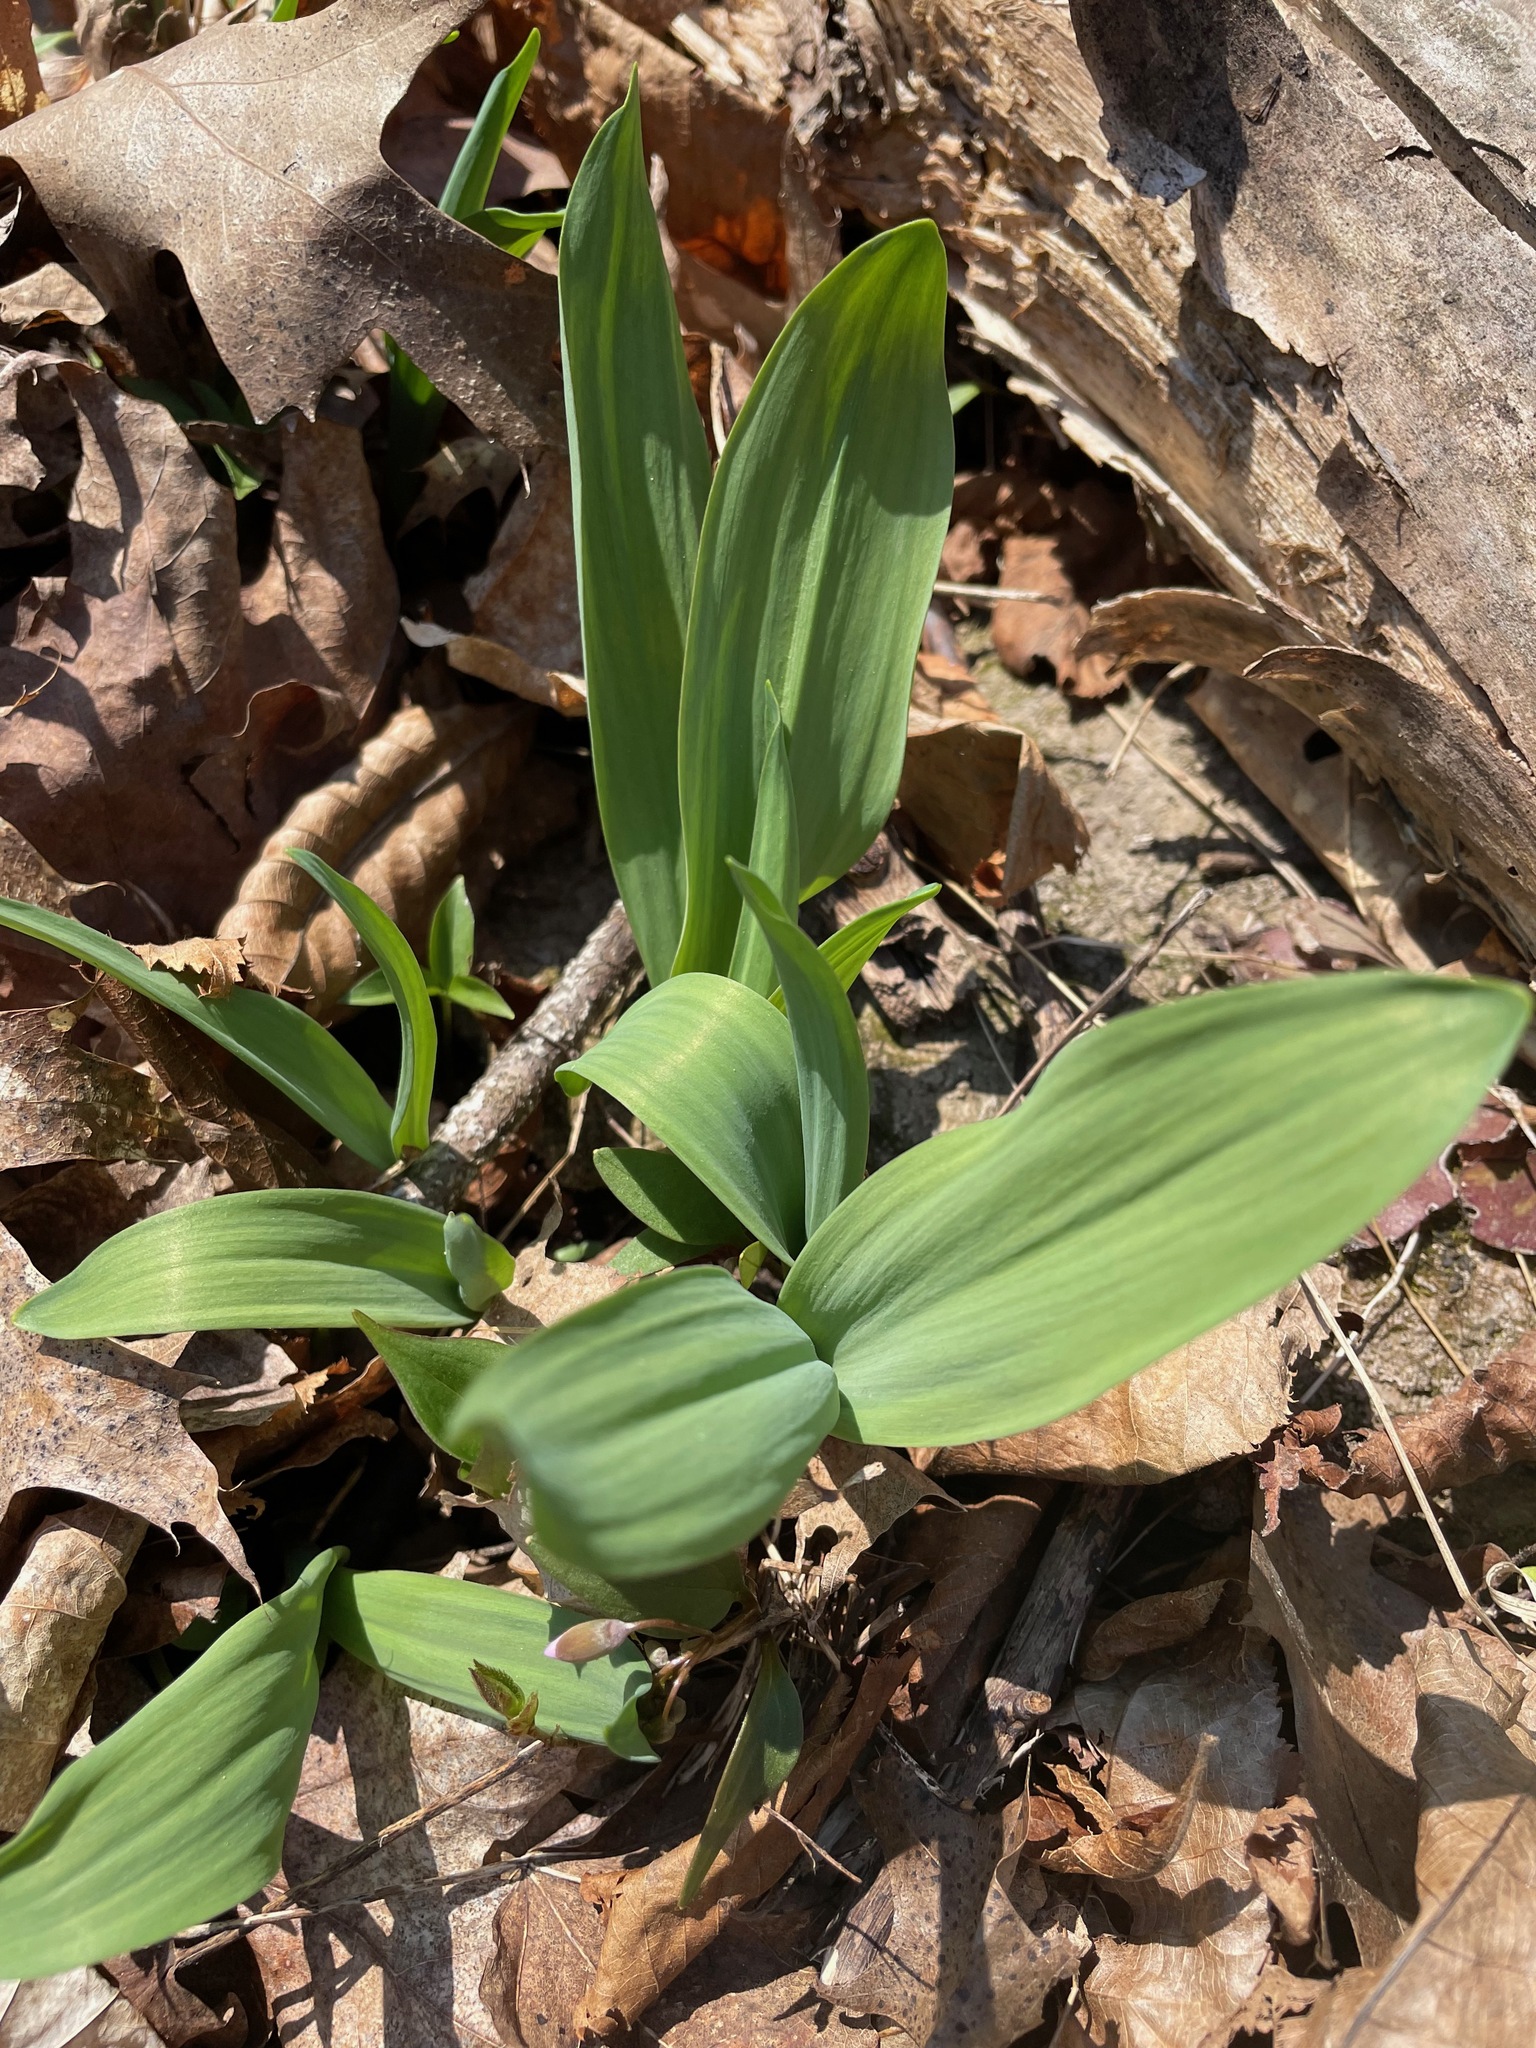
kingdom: Plantae
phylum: Tracheophyta
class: Liliopsida
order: Asparagales
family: Amaryllidaceae
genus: Allium
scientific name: Allium tricoccum
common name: Ramp
